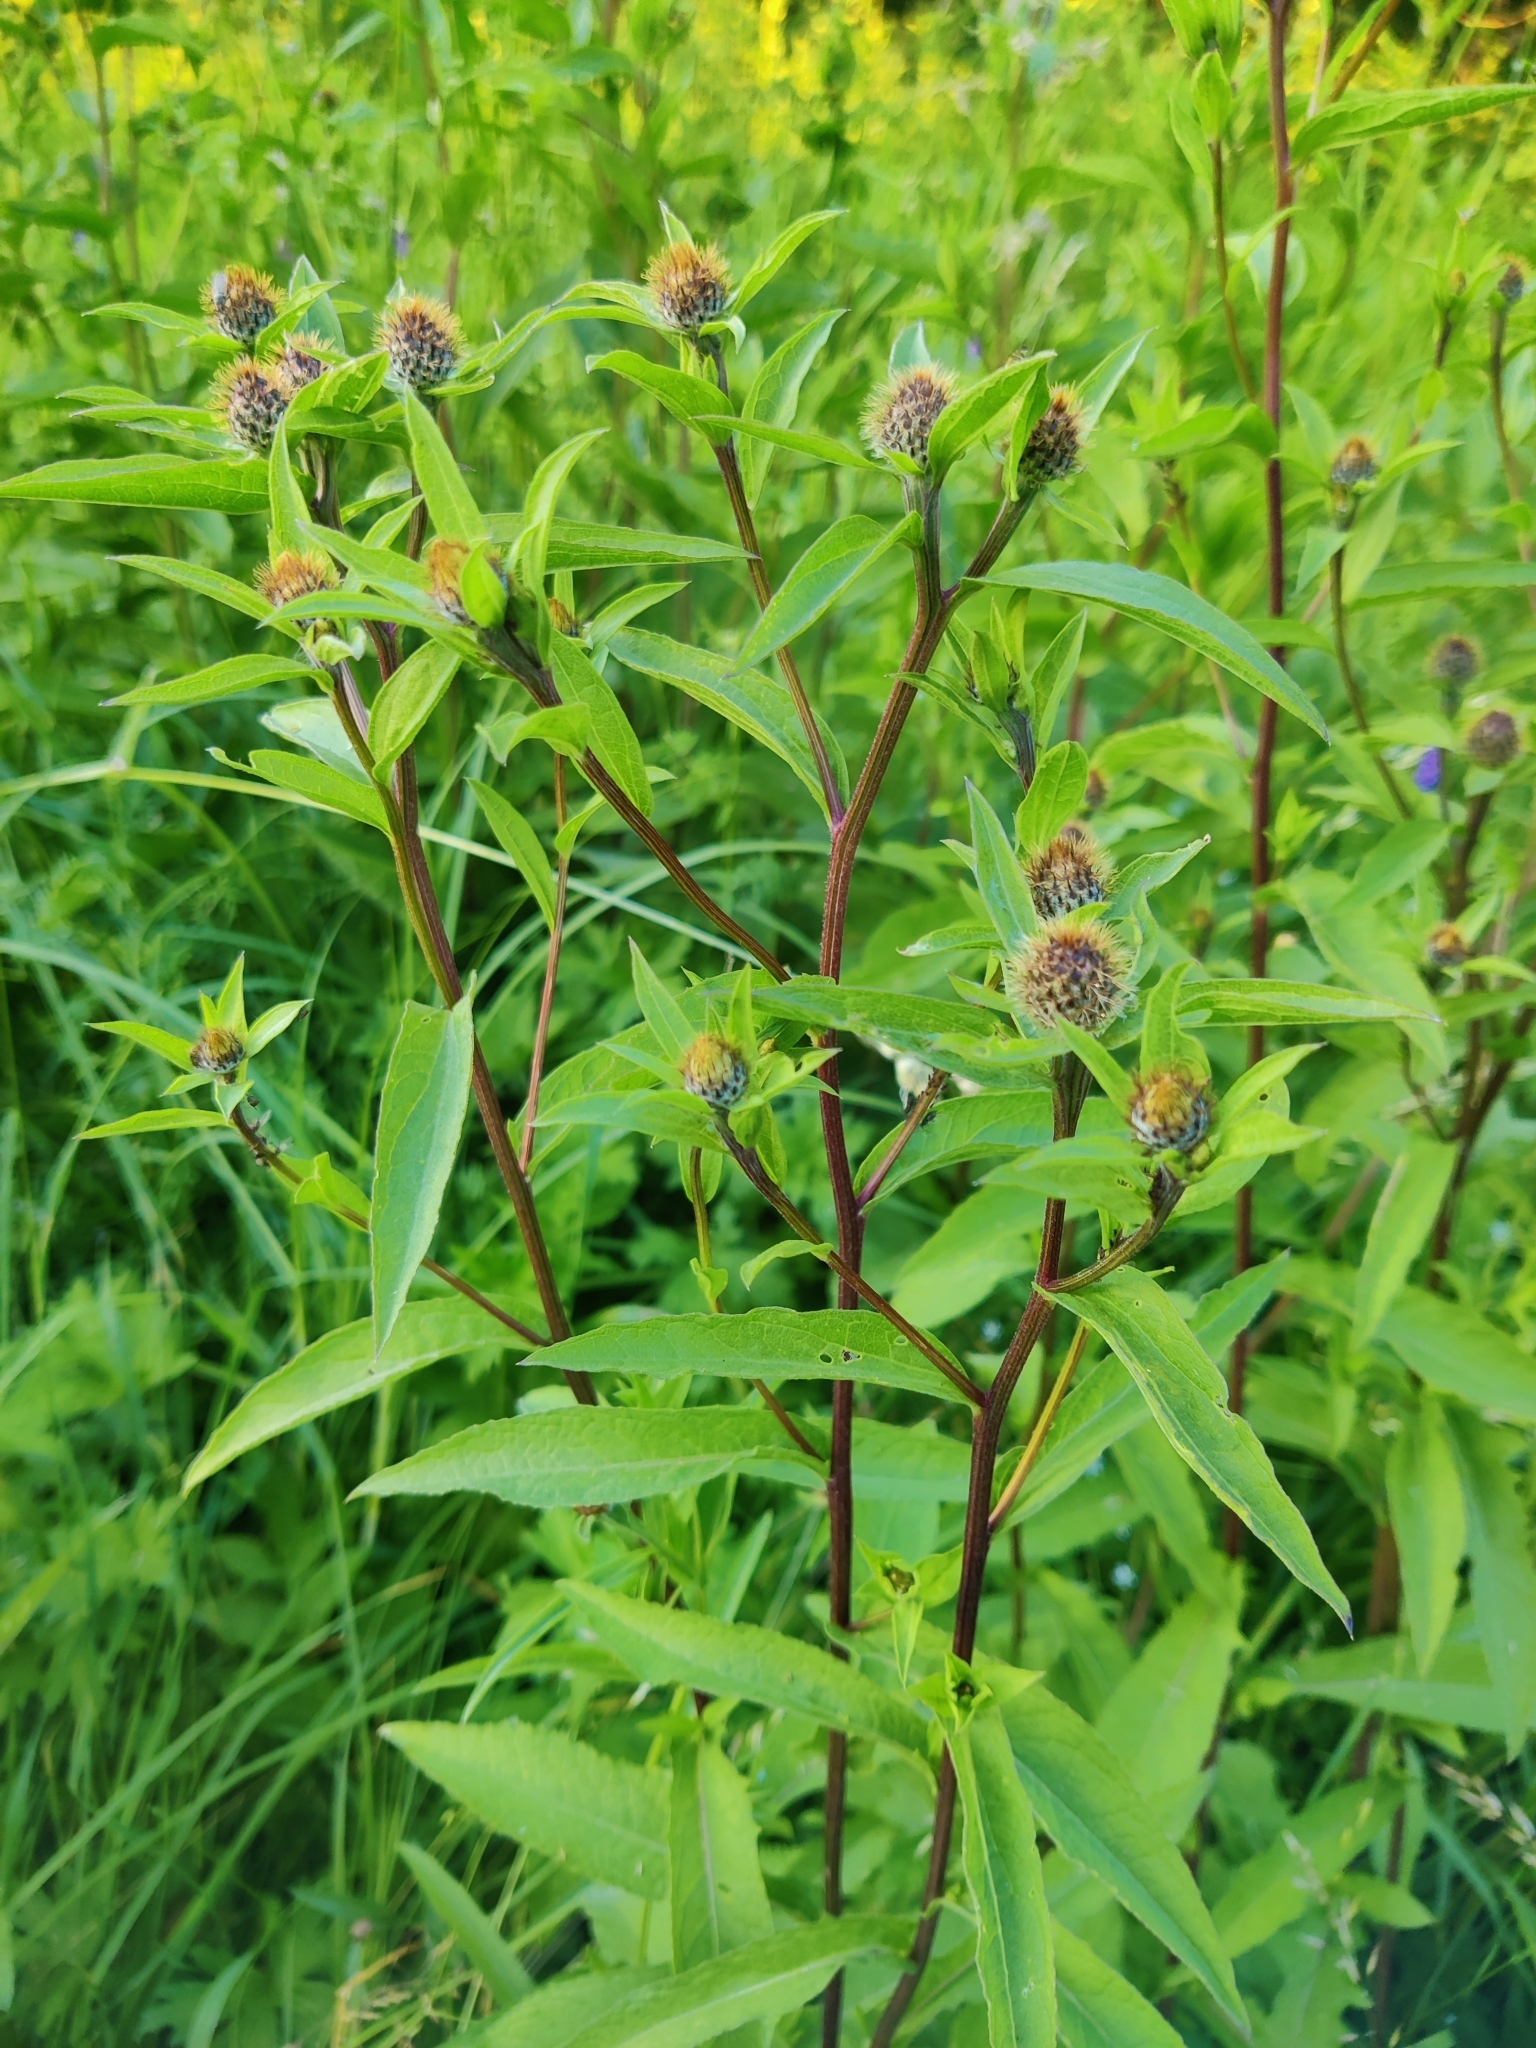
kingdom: Plantae
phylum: Tracheophyta
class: Magnoliopsida
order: Asterales
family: Asteraceae
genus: Centaurea
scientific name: Centaurea phrygia
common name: Wig knapweed
